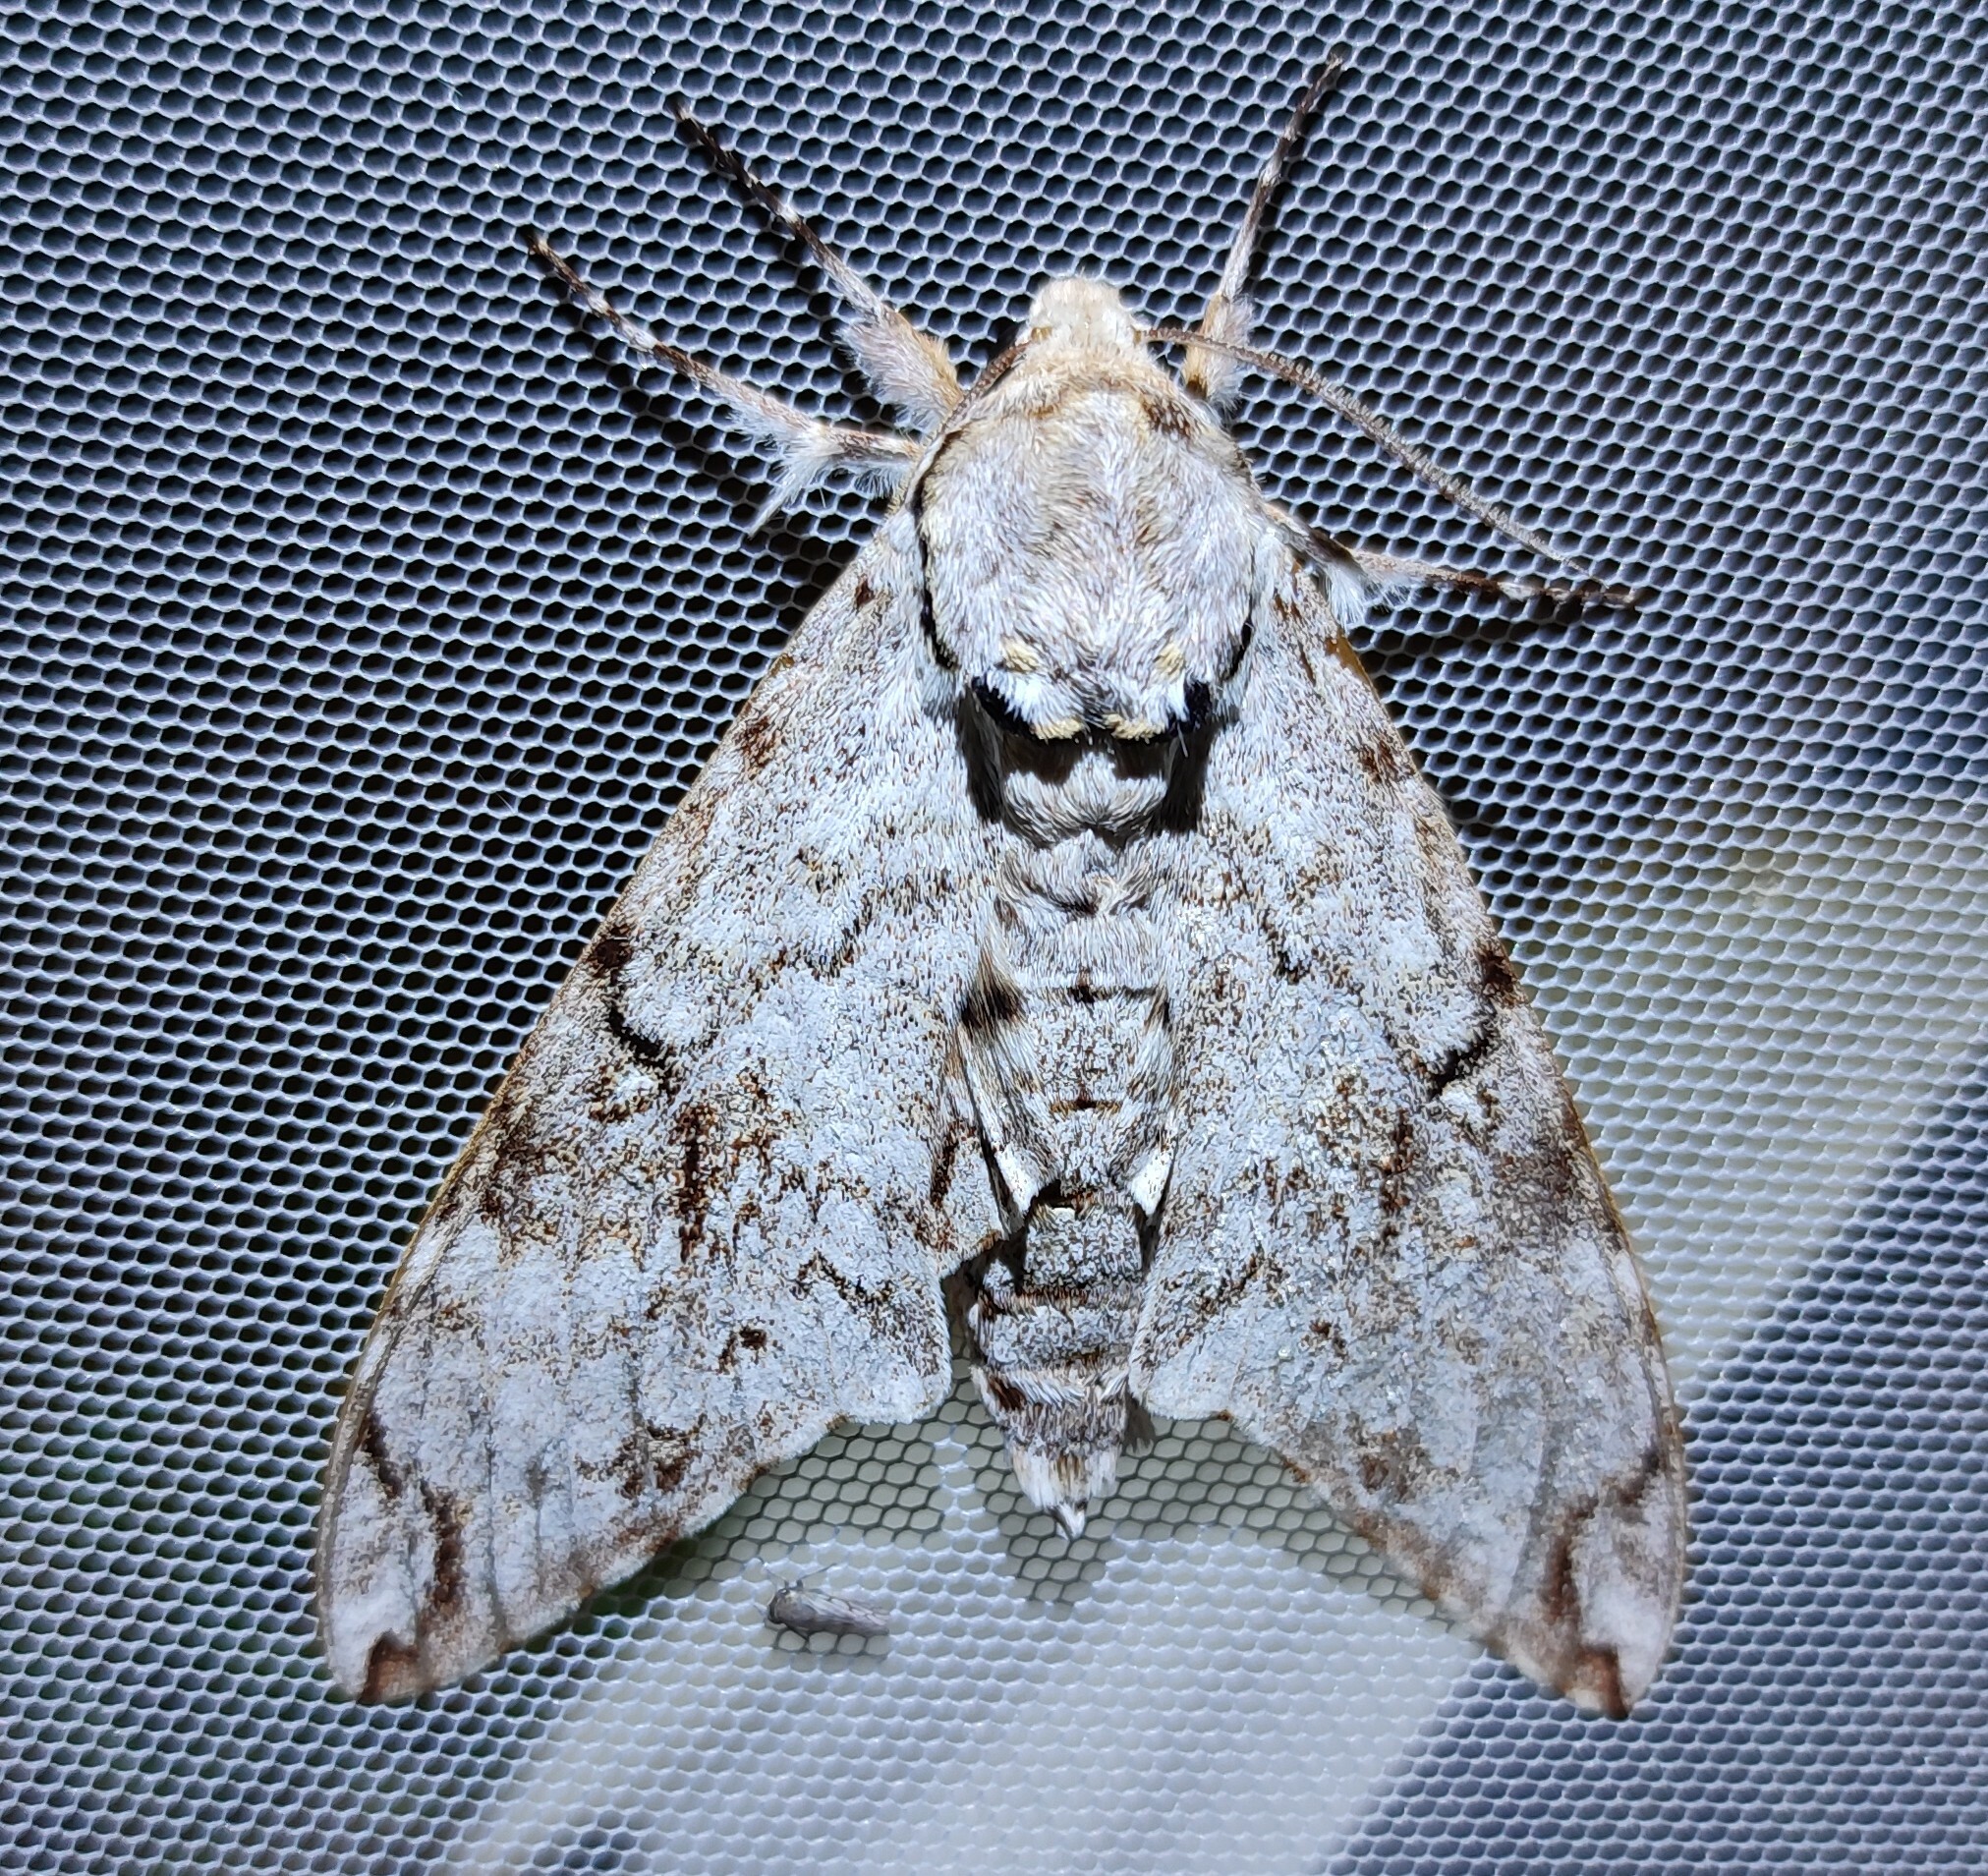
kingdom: Animalia
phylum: Arthropoda
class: Insecta
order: Lepidoptera
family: Sphingidae
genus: Macropoliana
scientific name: Macropoliana natalensis
